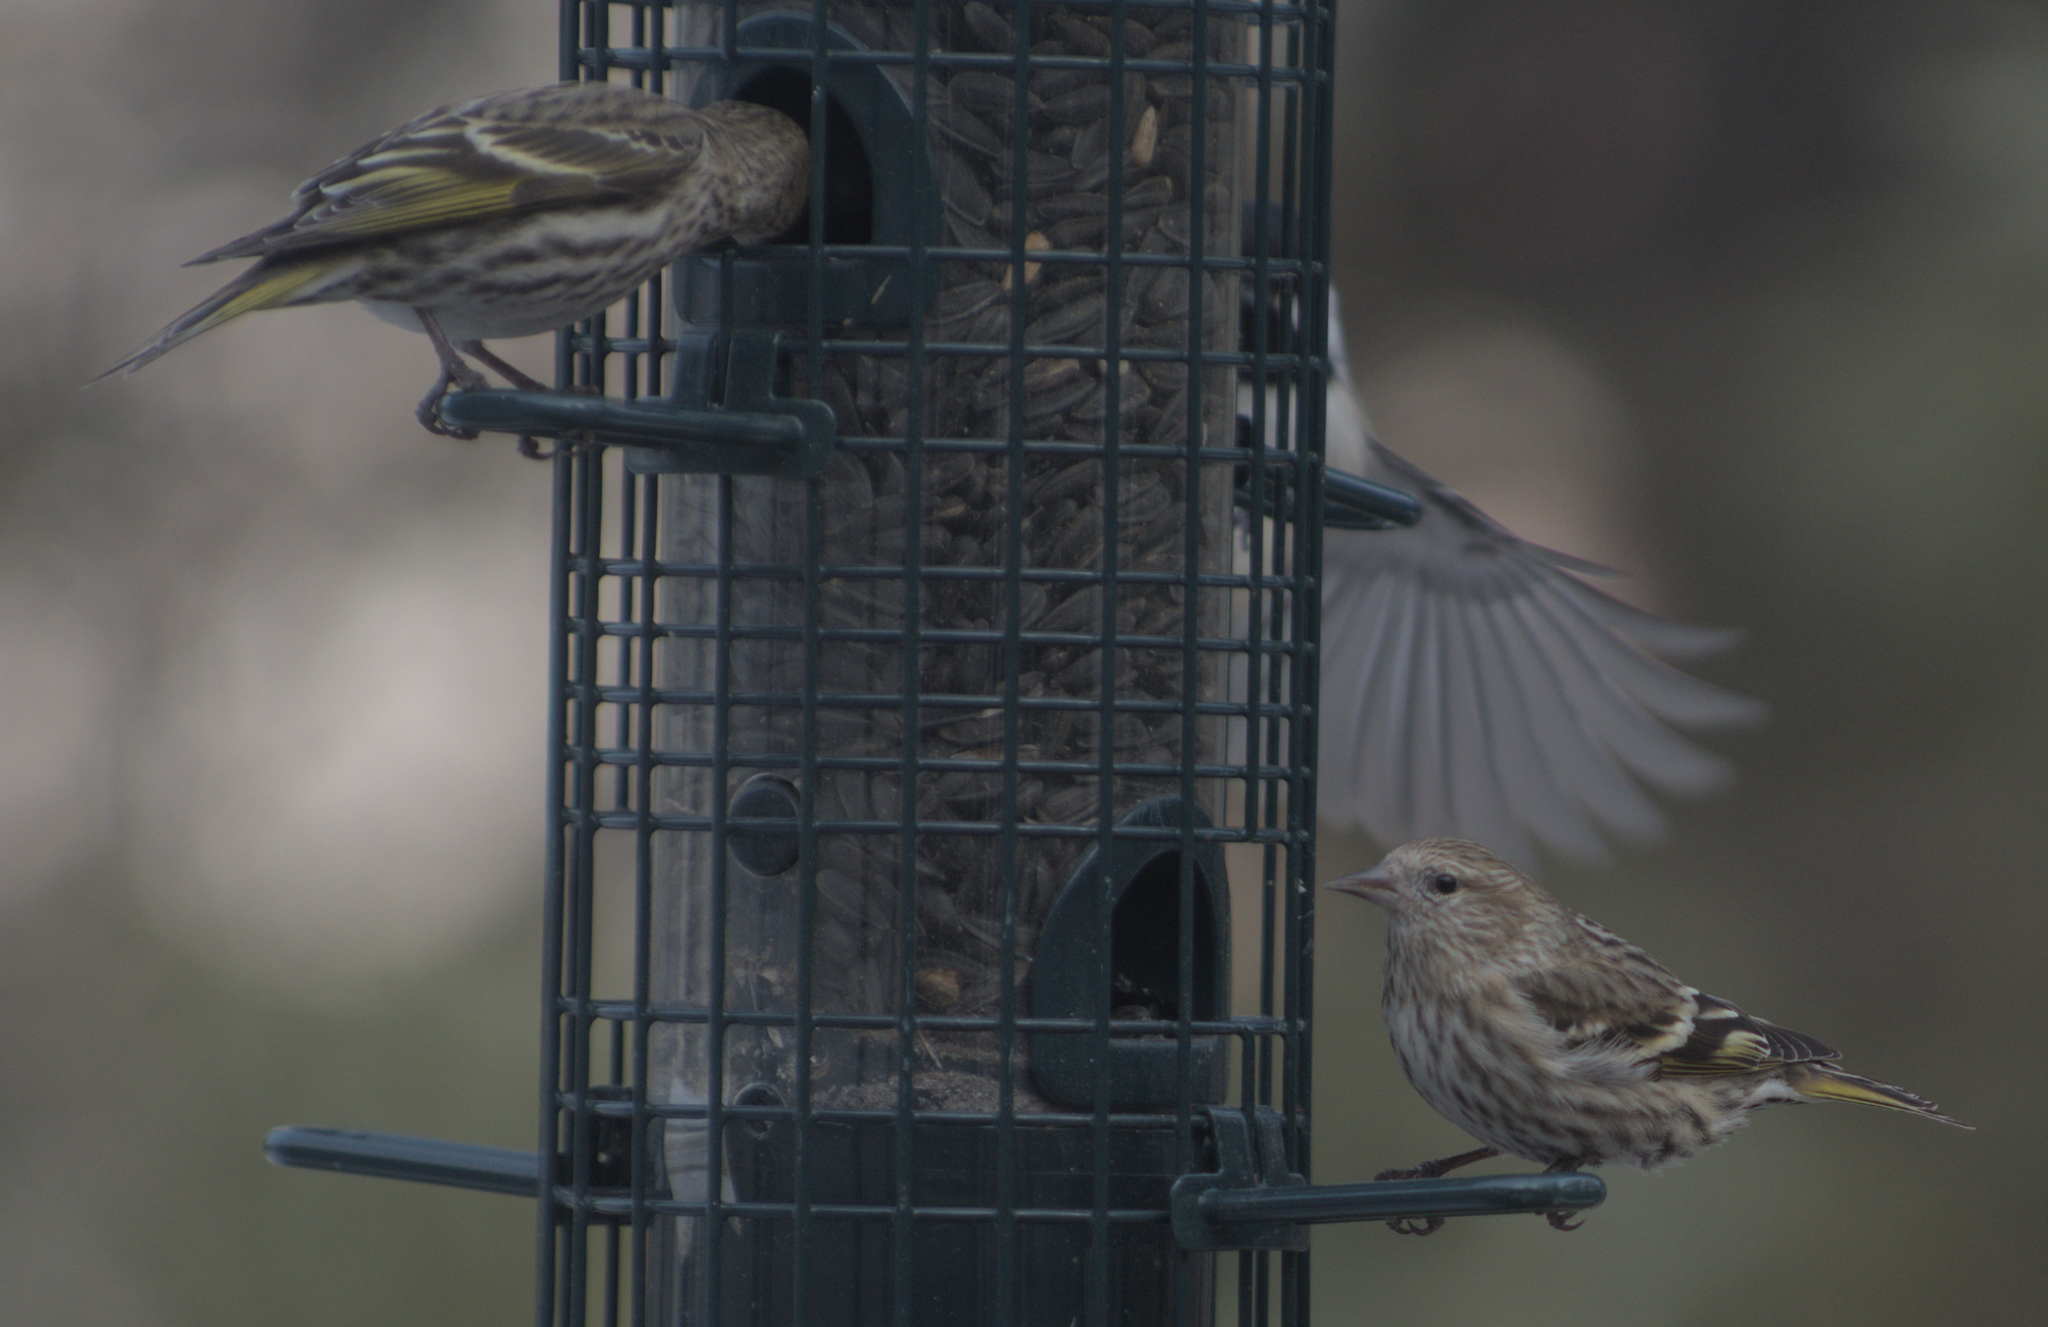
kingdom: Animalia
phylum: Chordata
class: Aves
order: Passeriformes
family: Fringillidae
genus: Spinus
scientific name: Spinus pinus
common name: Pine siskin
